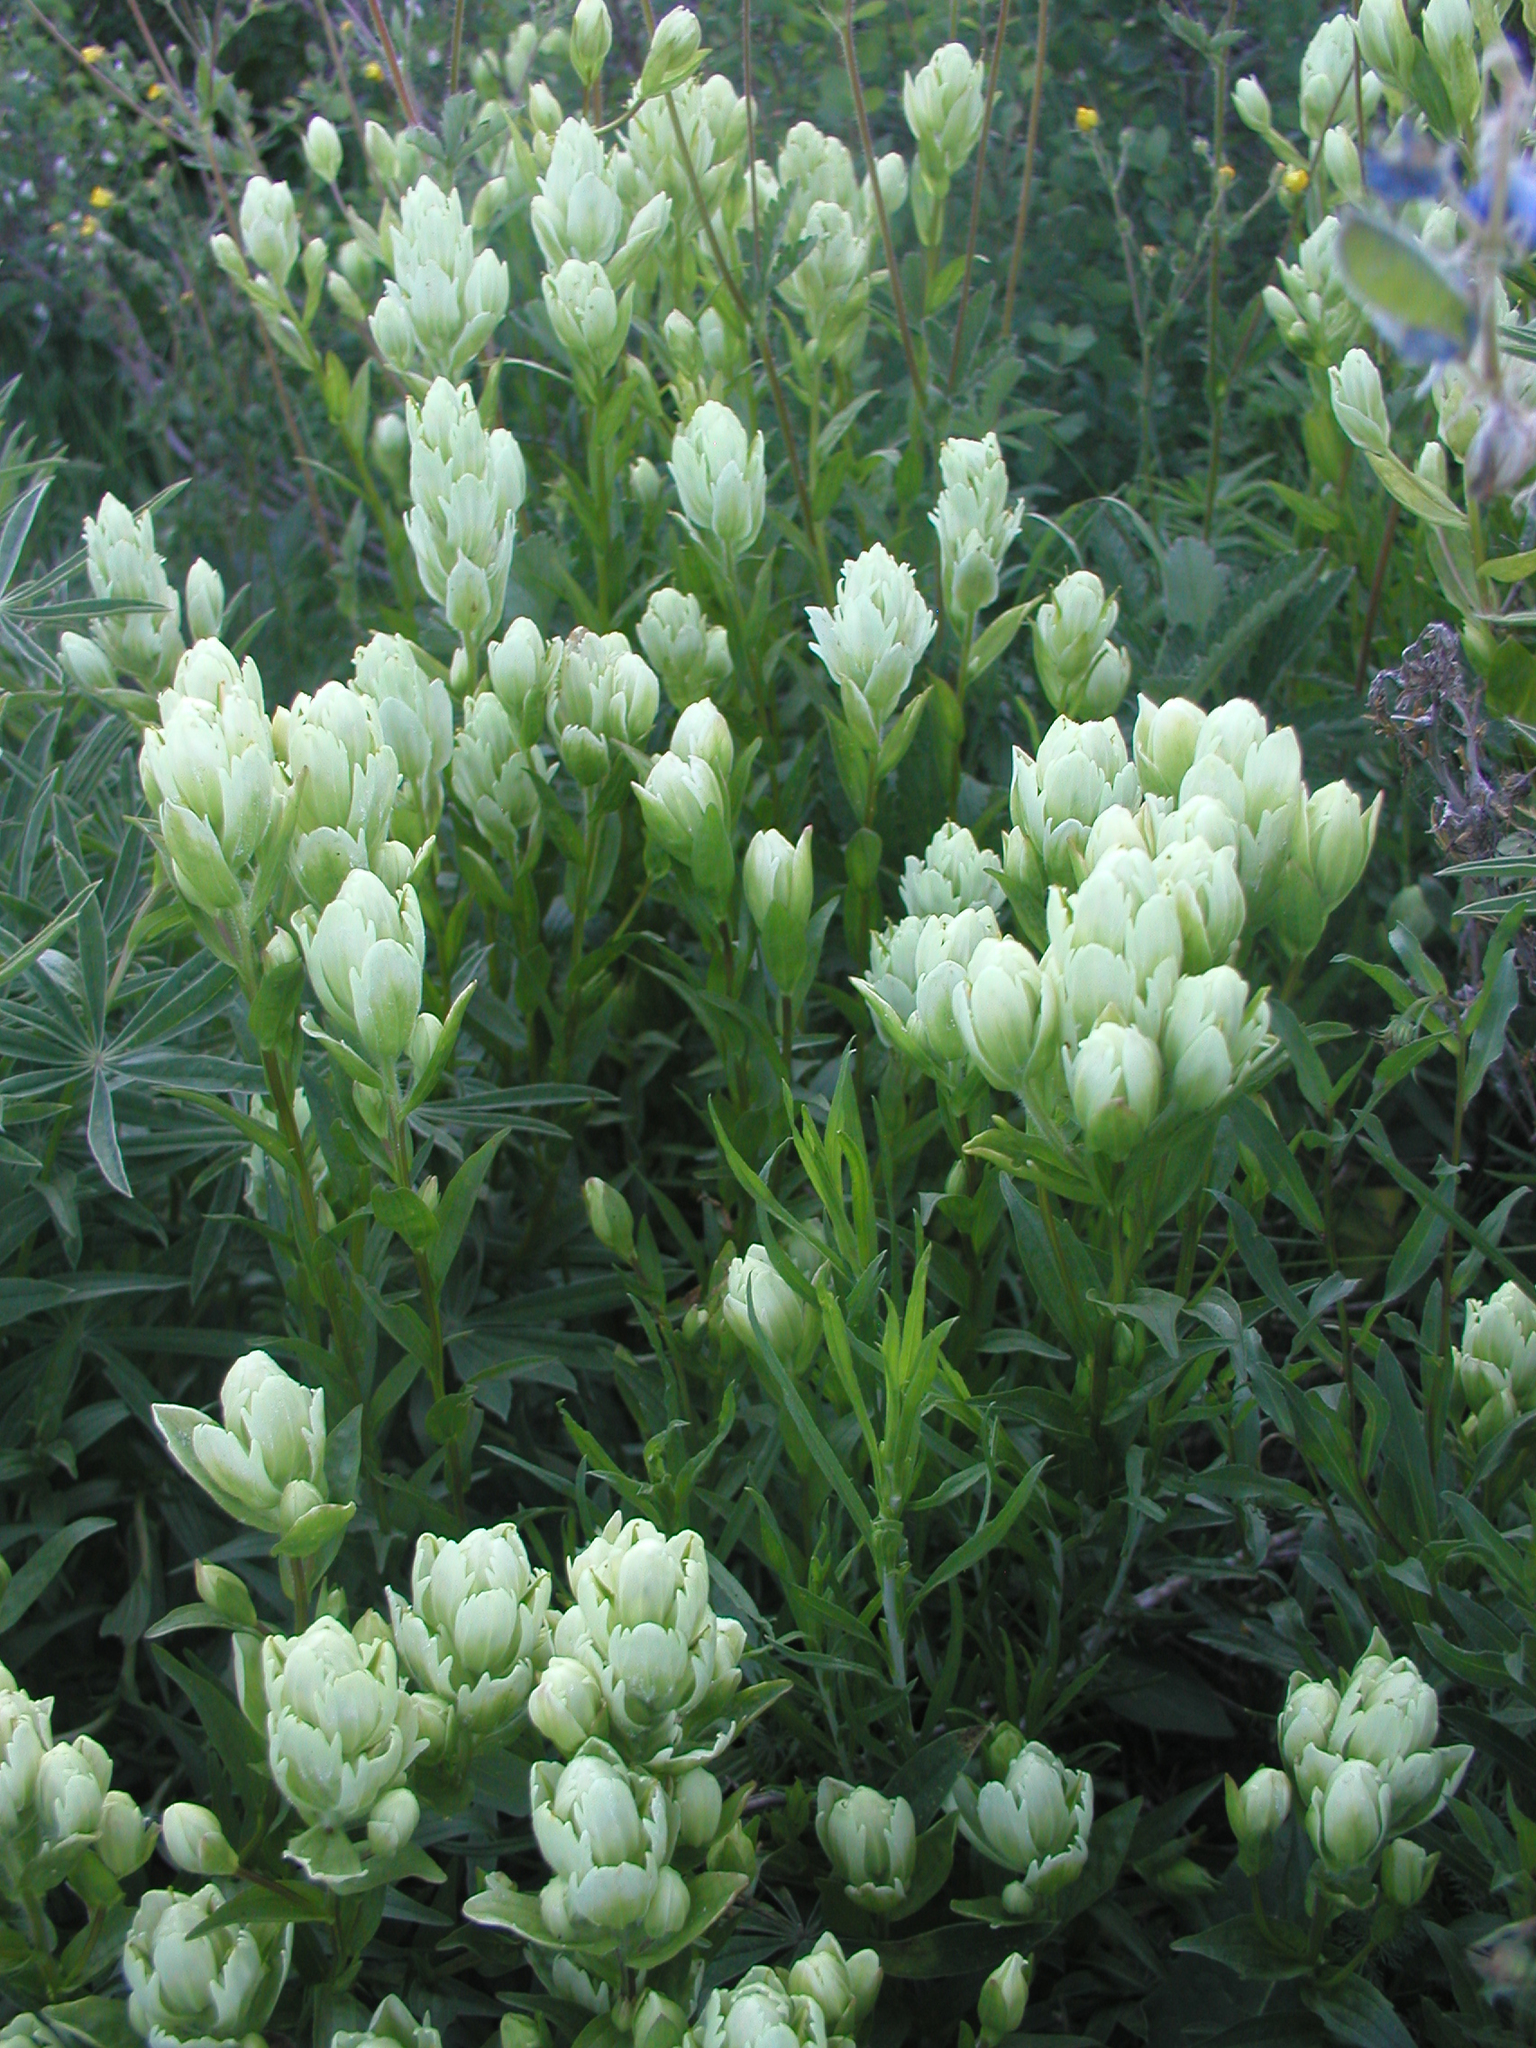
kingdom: Plantae
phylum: Tracheophyta
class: Magnoliopsida
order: Lamiales
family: Orobanchaceae
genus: Castilleja
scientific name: Castilleja septentrionalis
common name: Northeastern paintbrush
